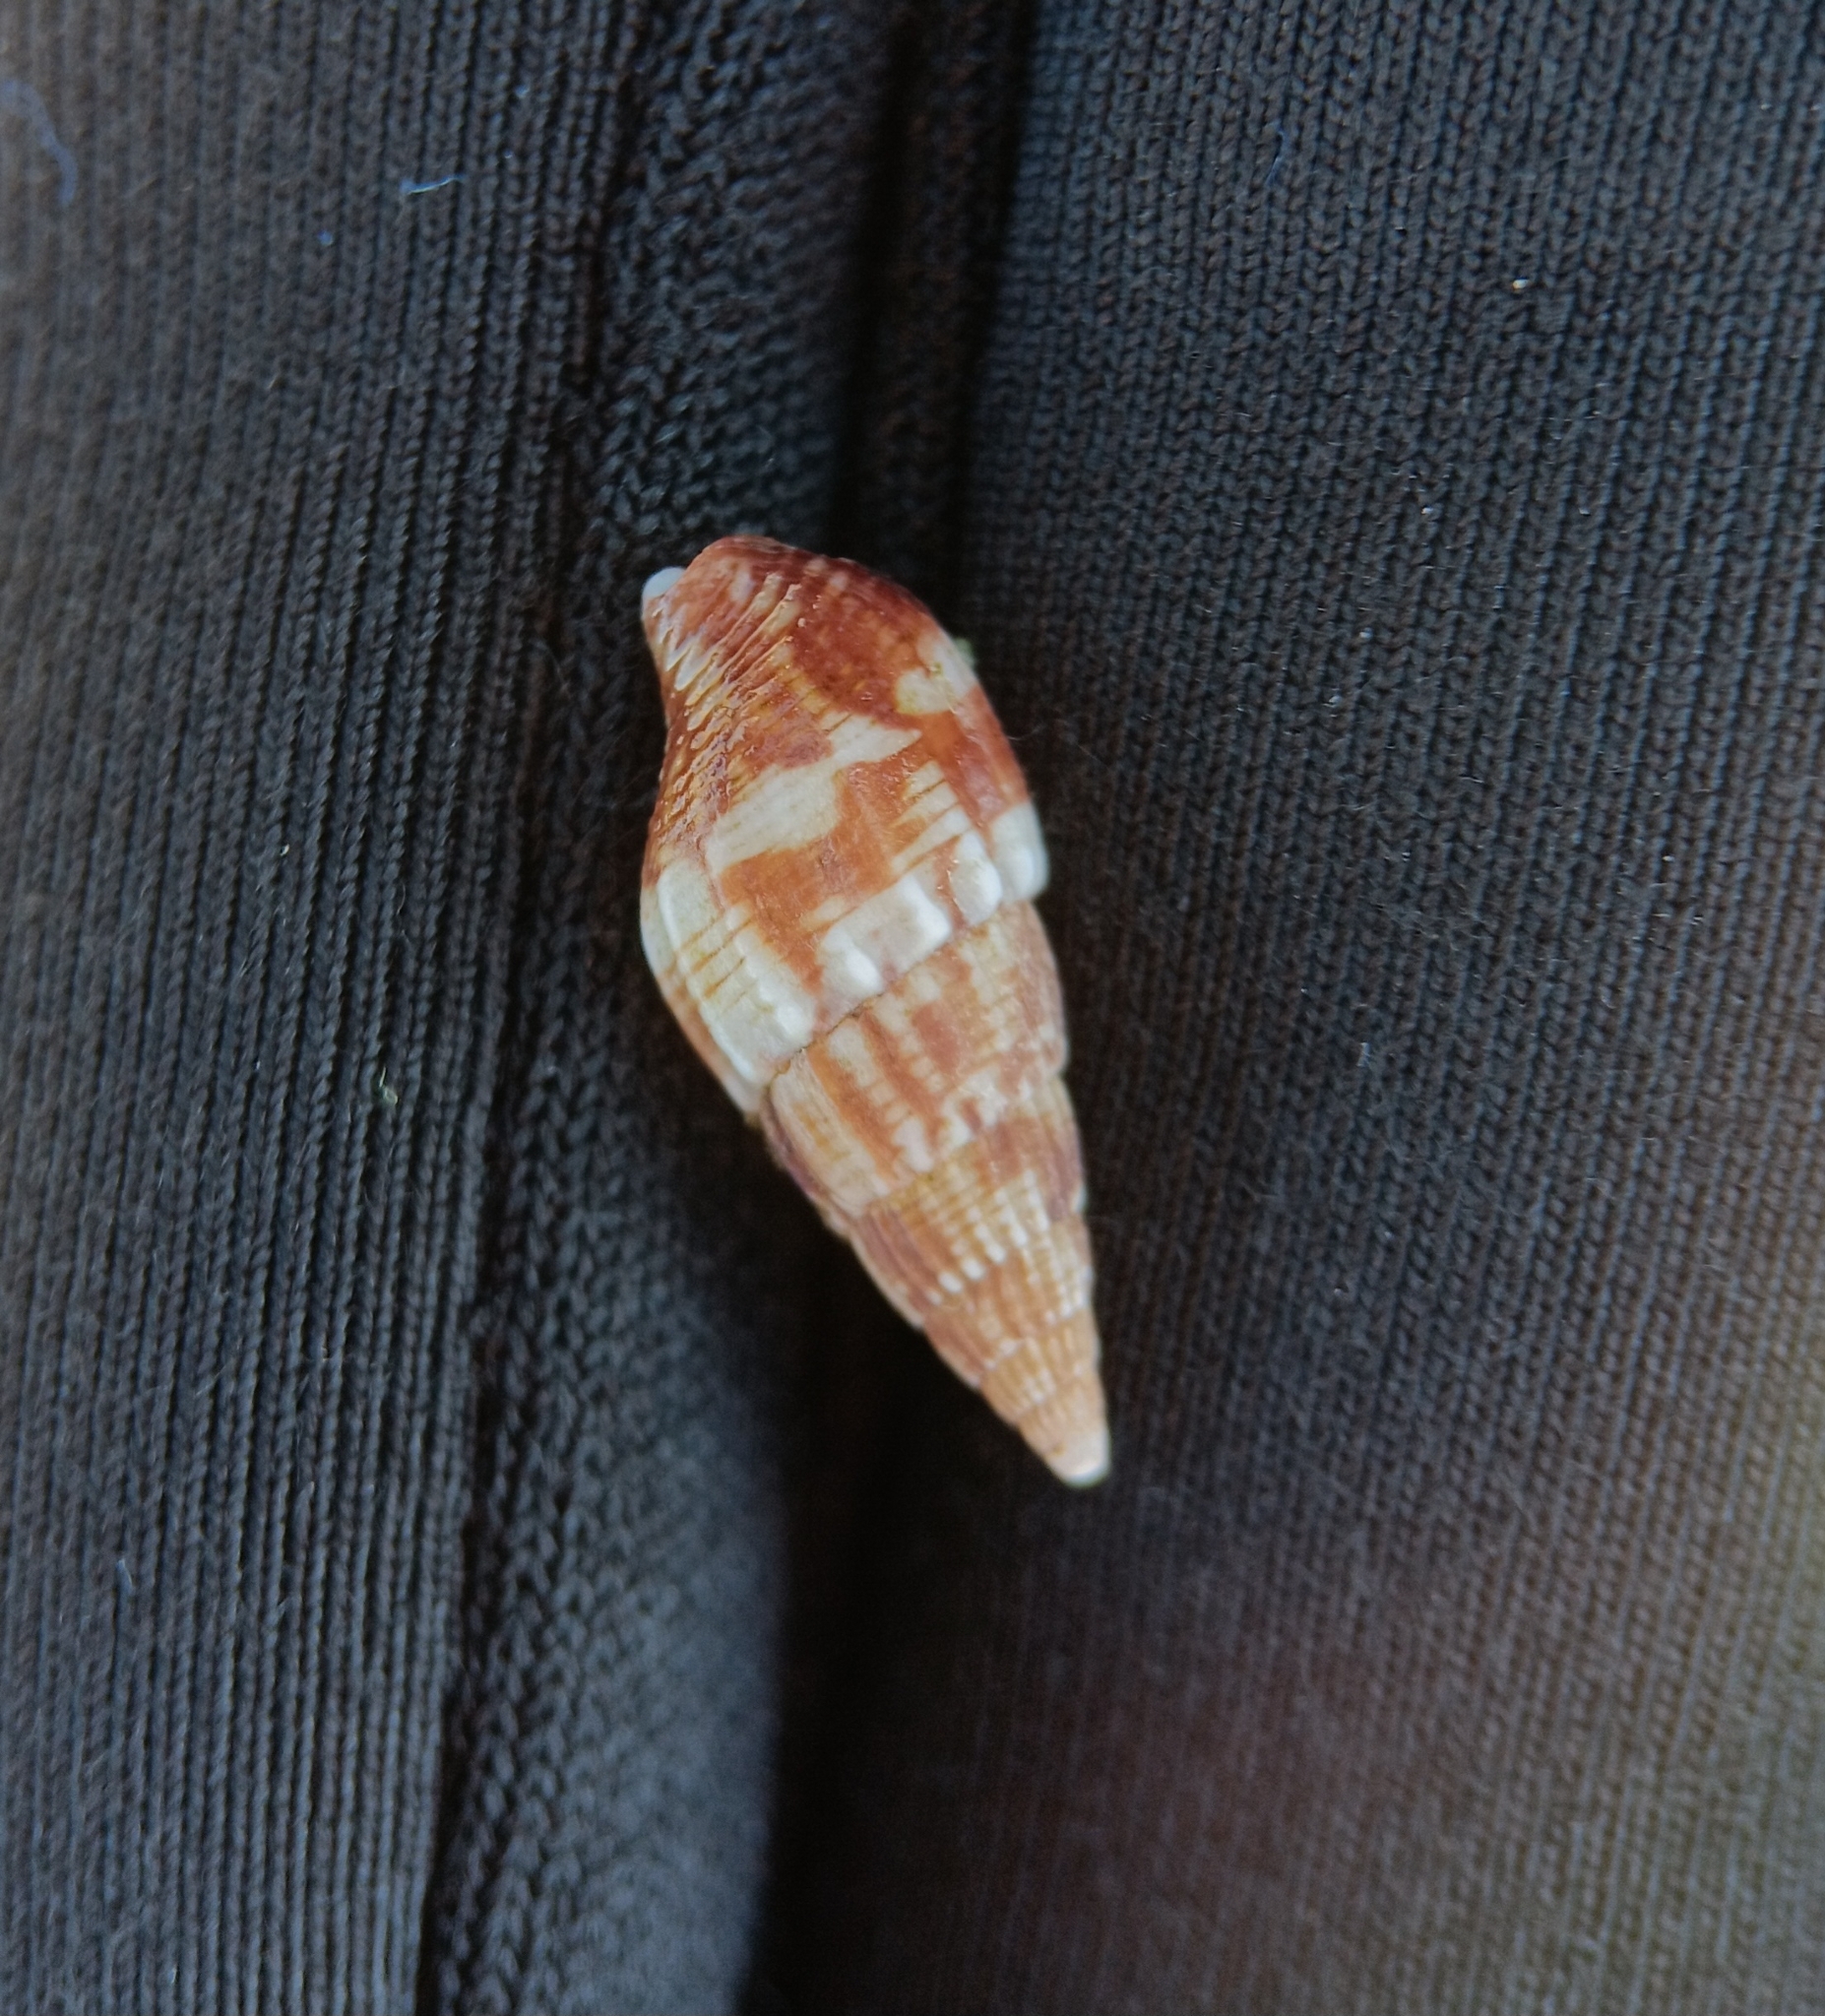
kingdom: Animalia
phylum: Mollusca
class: Gastropoda
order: Neogastropoda
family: Columbellidae
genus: Costoanachis
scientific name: Costoanachis translirata
